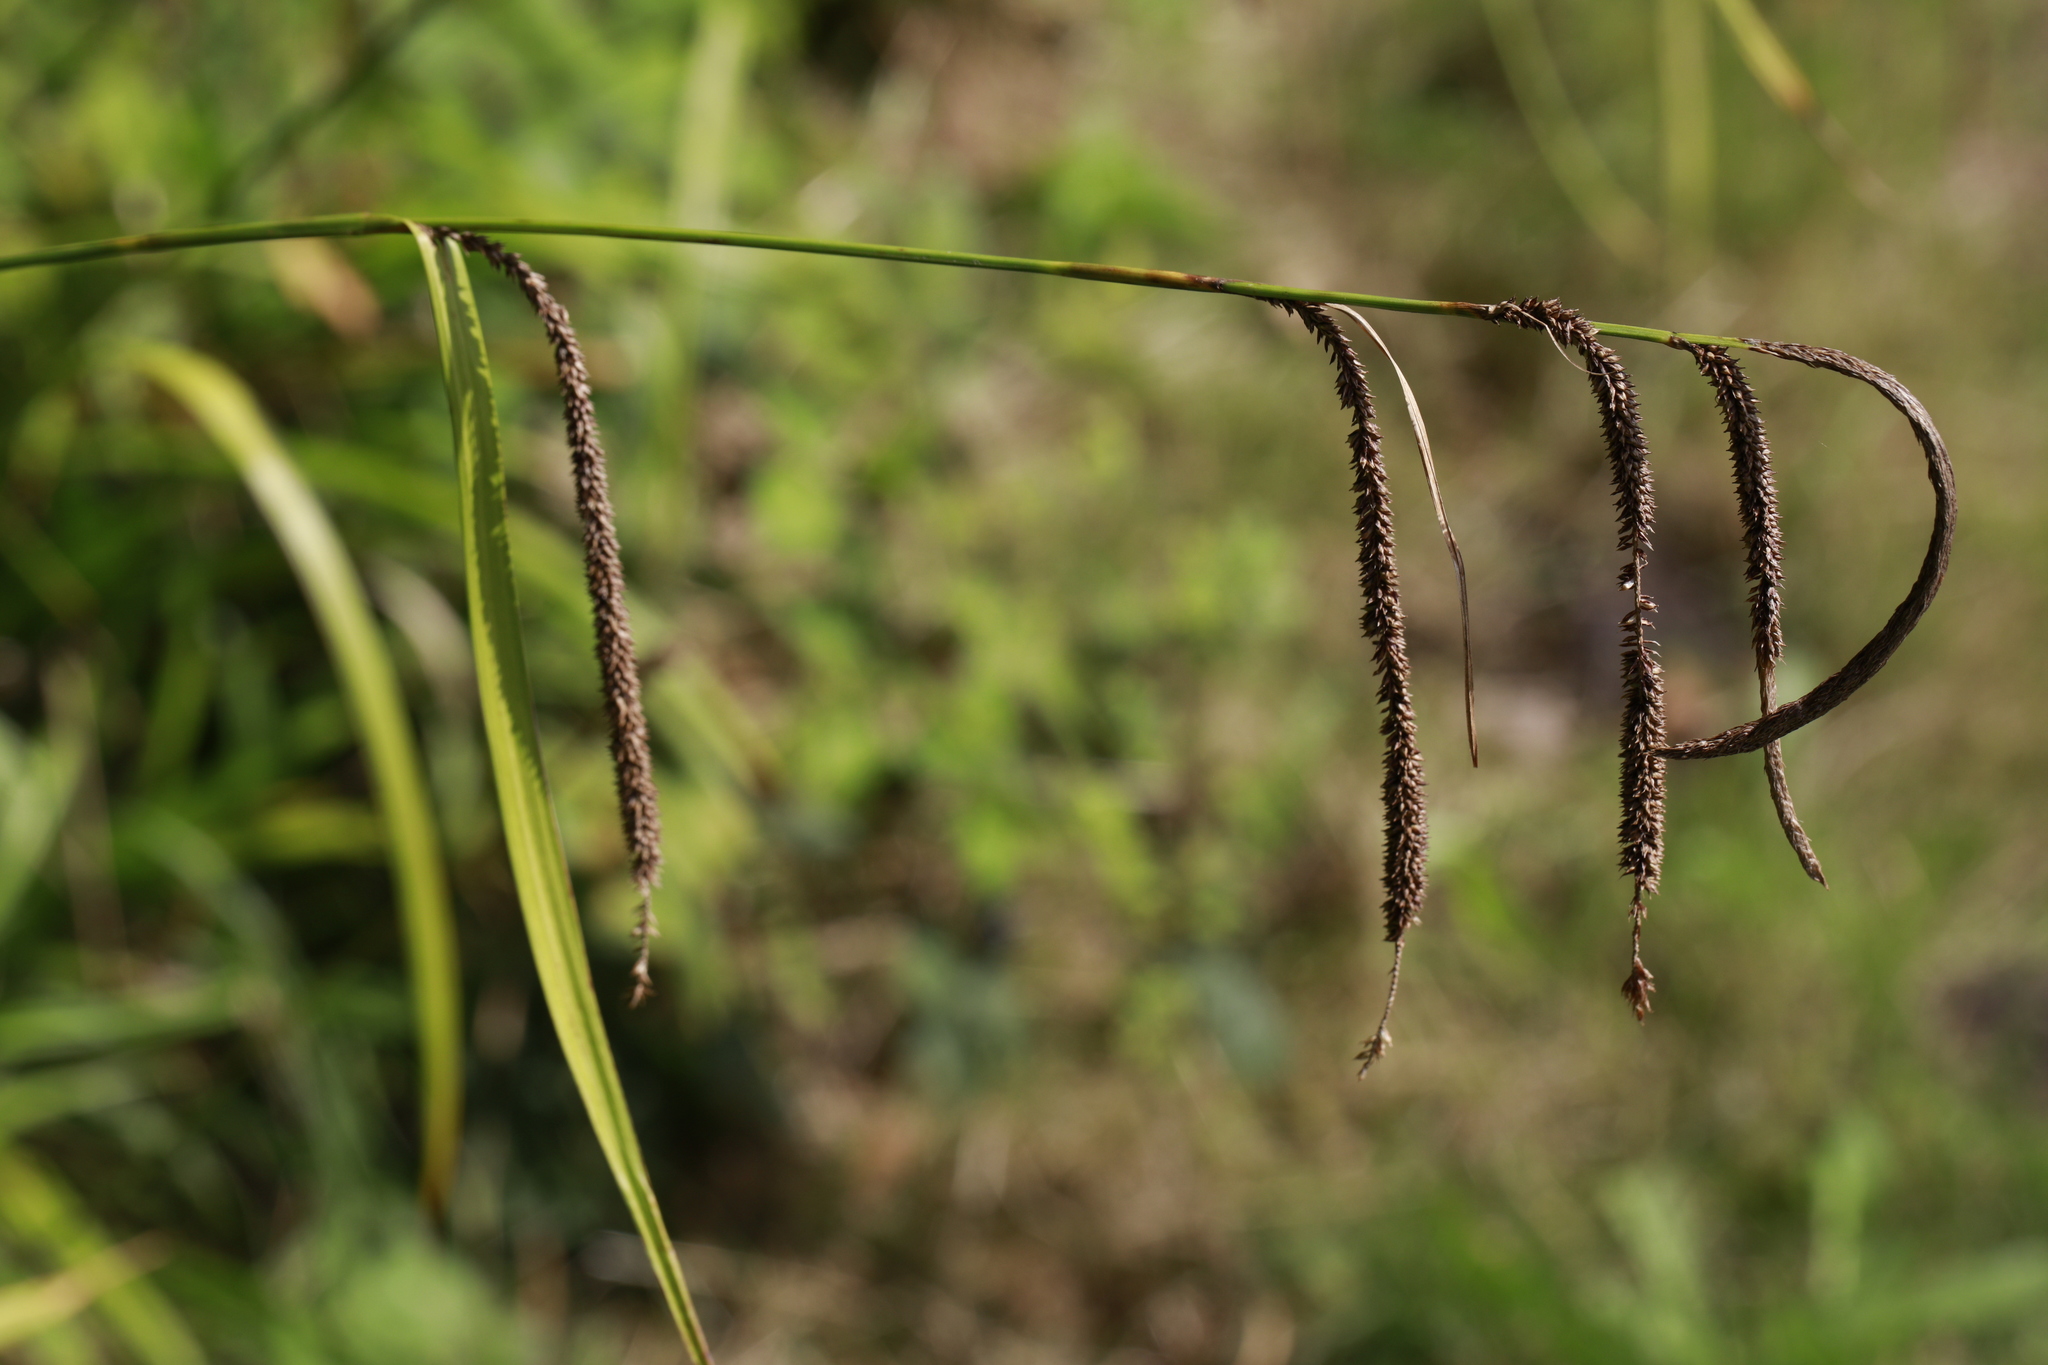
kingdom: Plantae
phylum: Tracheophyta
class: Liliopsida
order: Poales
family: Cyperaceae
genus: Carex
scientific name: Carex pendula
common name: Pendulous sedge
